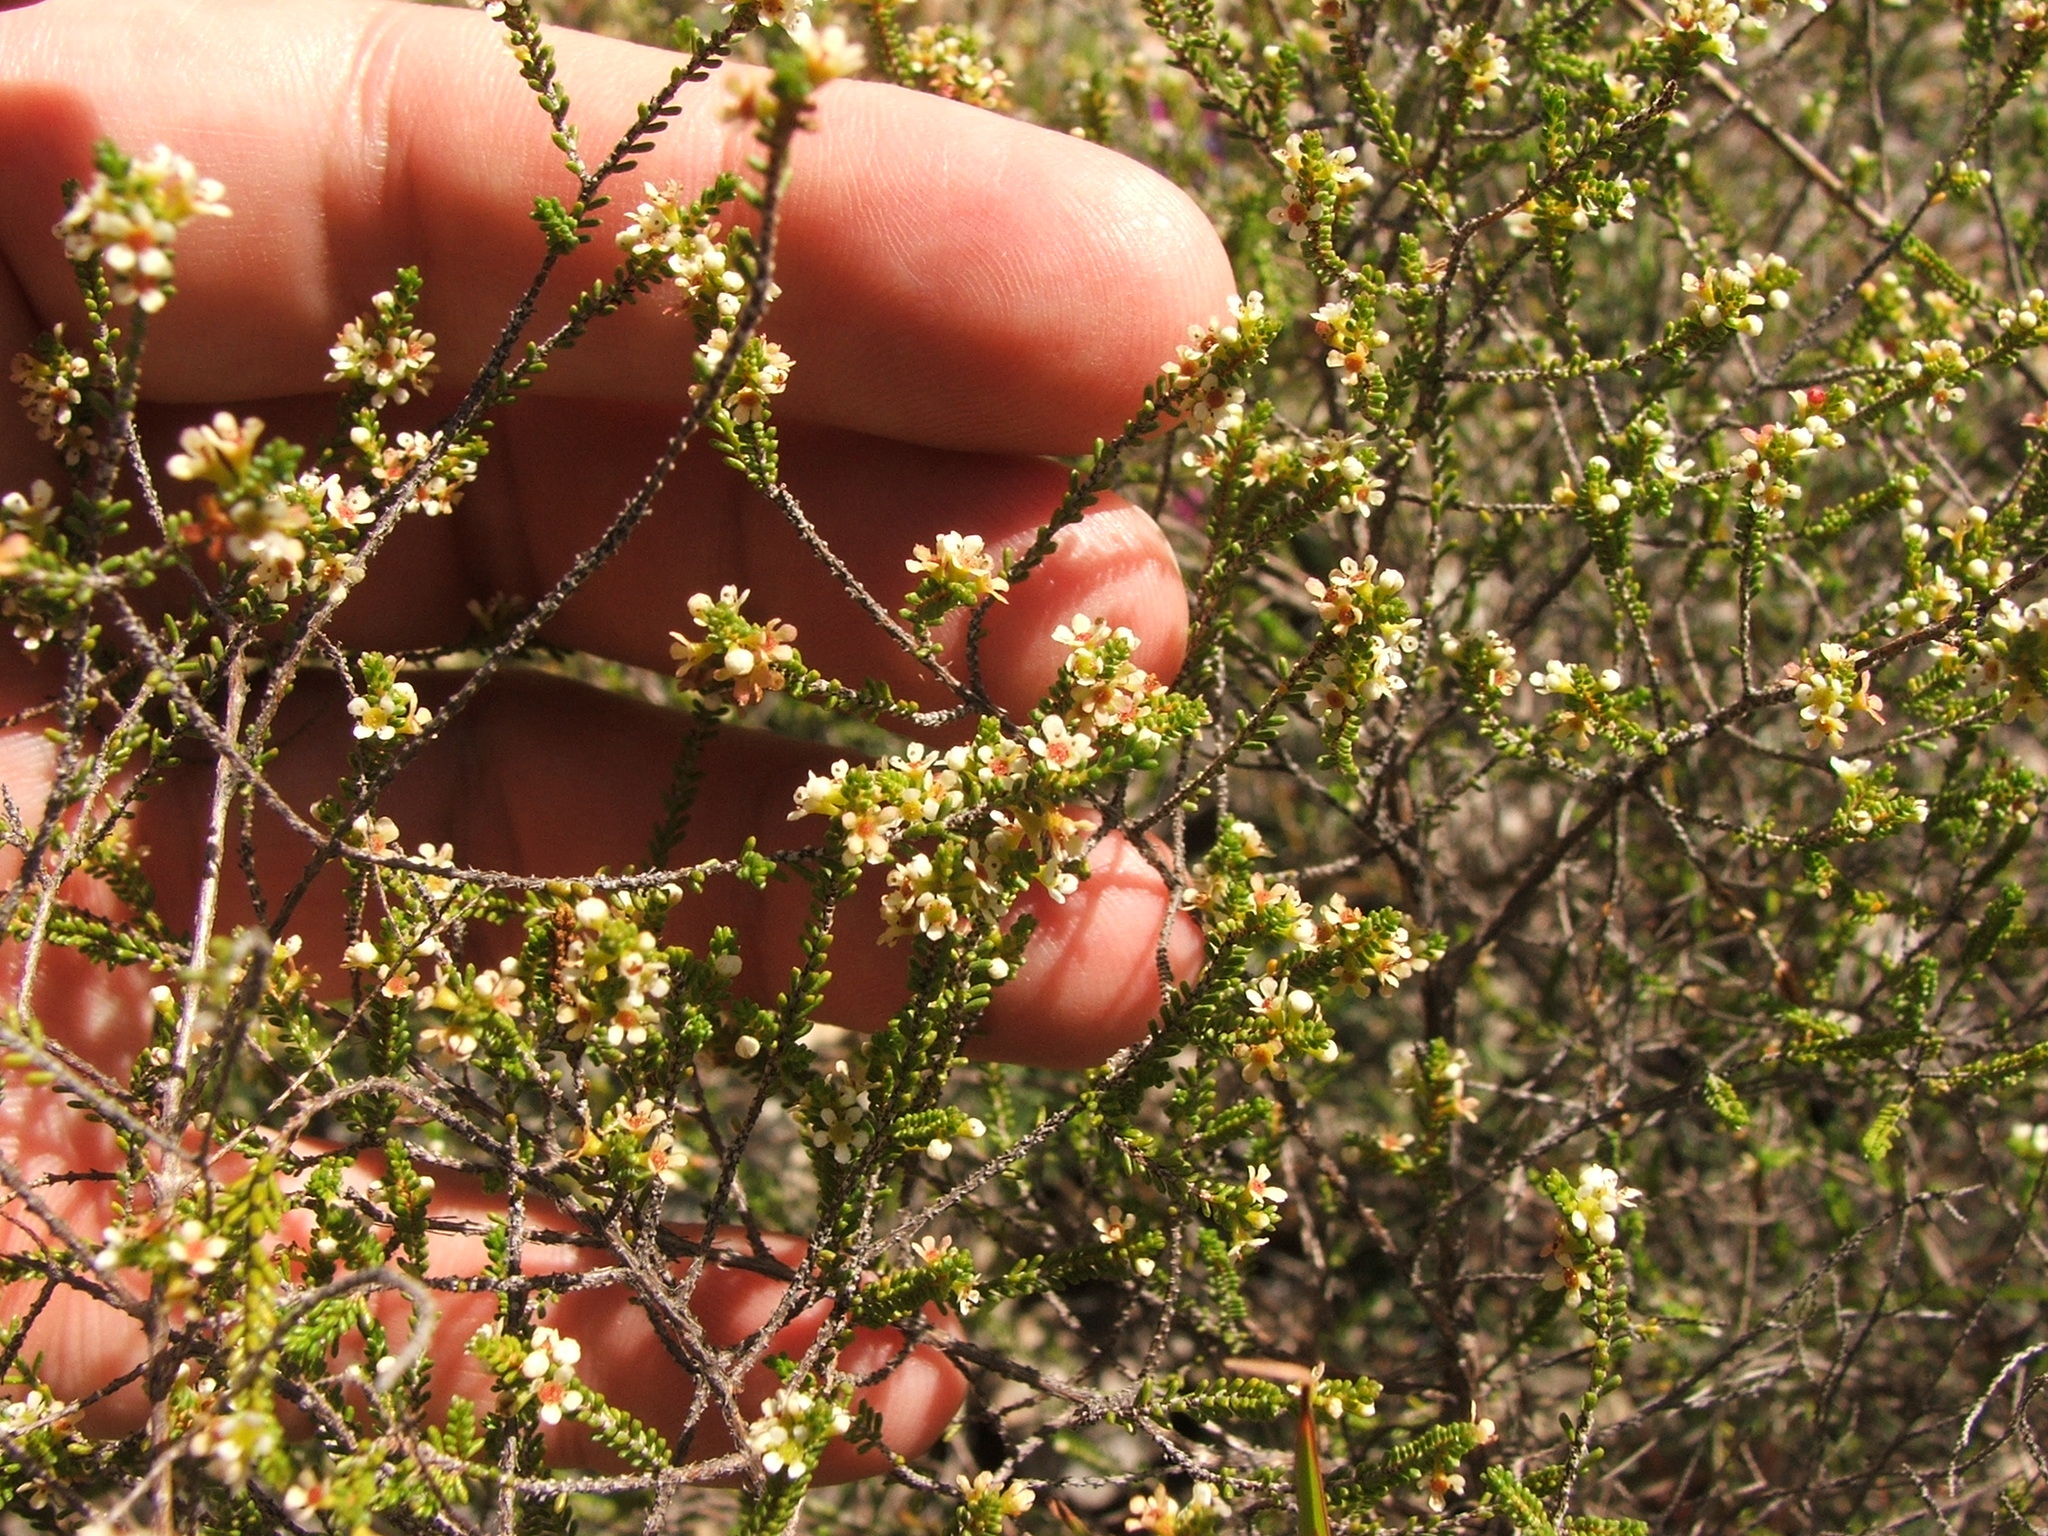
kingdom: Plantae
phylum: Tracheophyta
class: Magnoliopsida
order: Myrtales
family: Myrtaceae
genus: Micromyrtus
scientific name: Micromyrtus delicata
